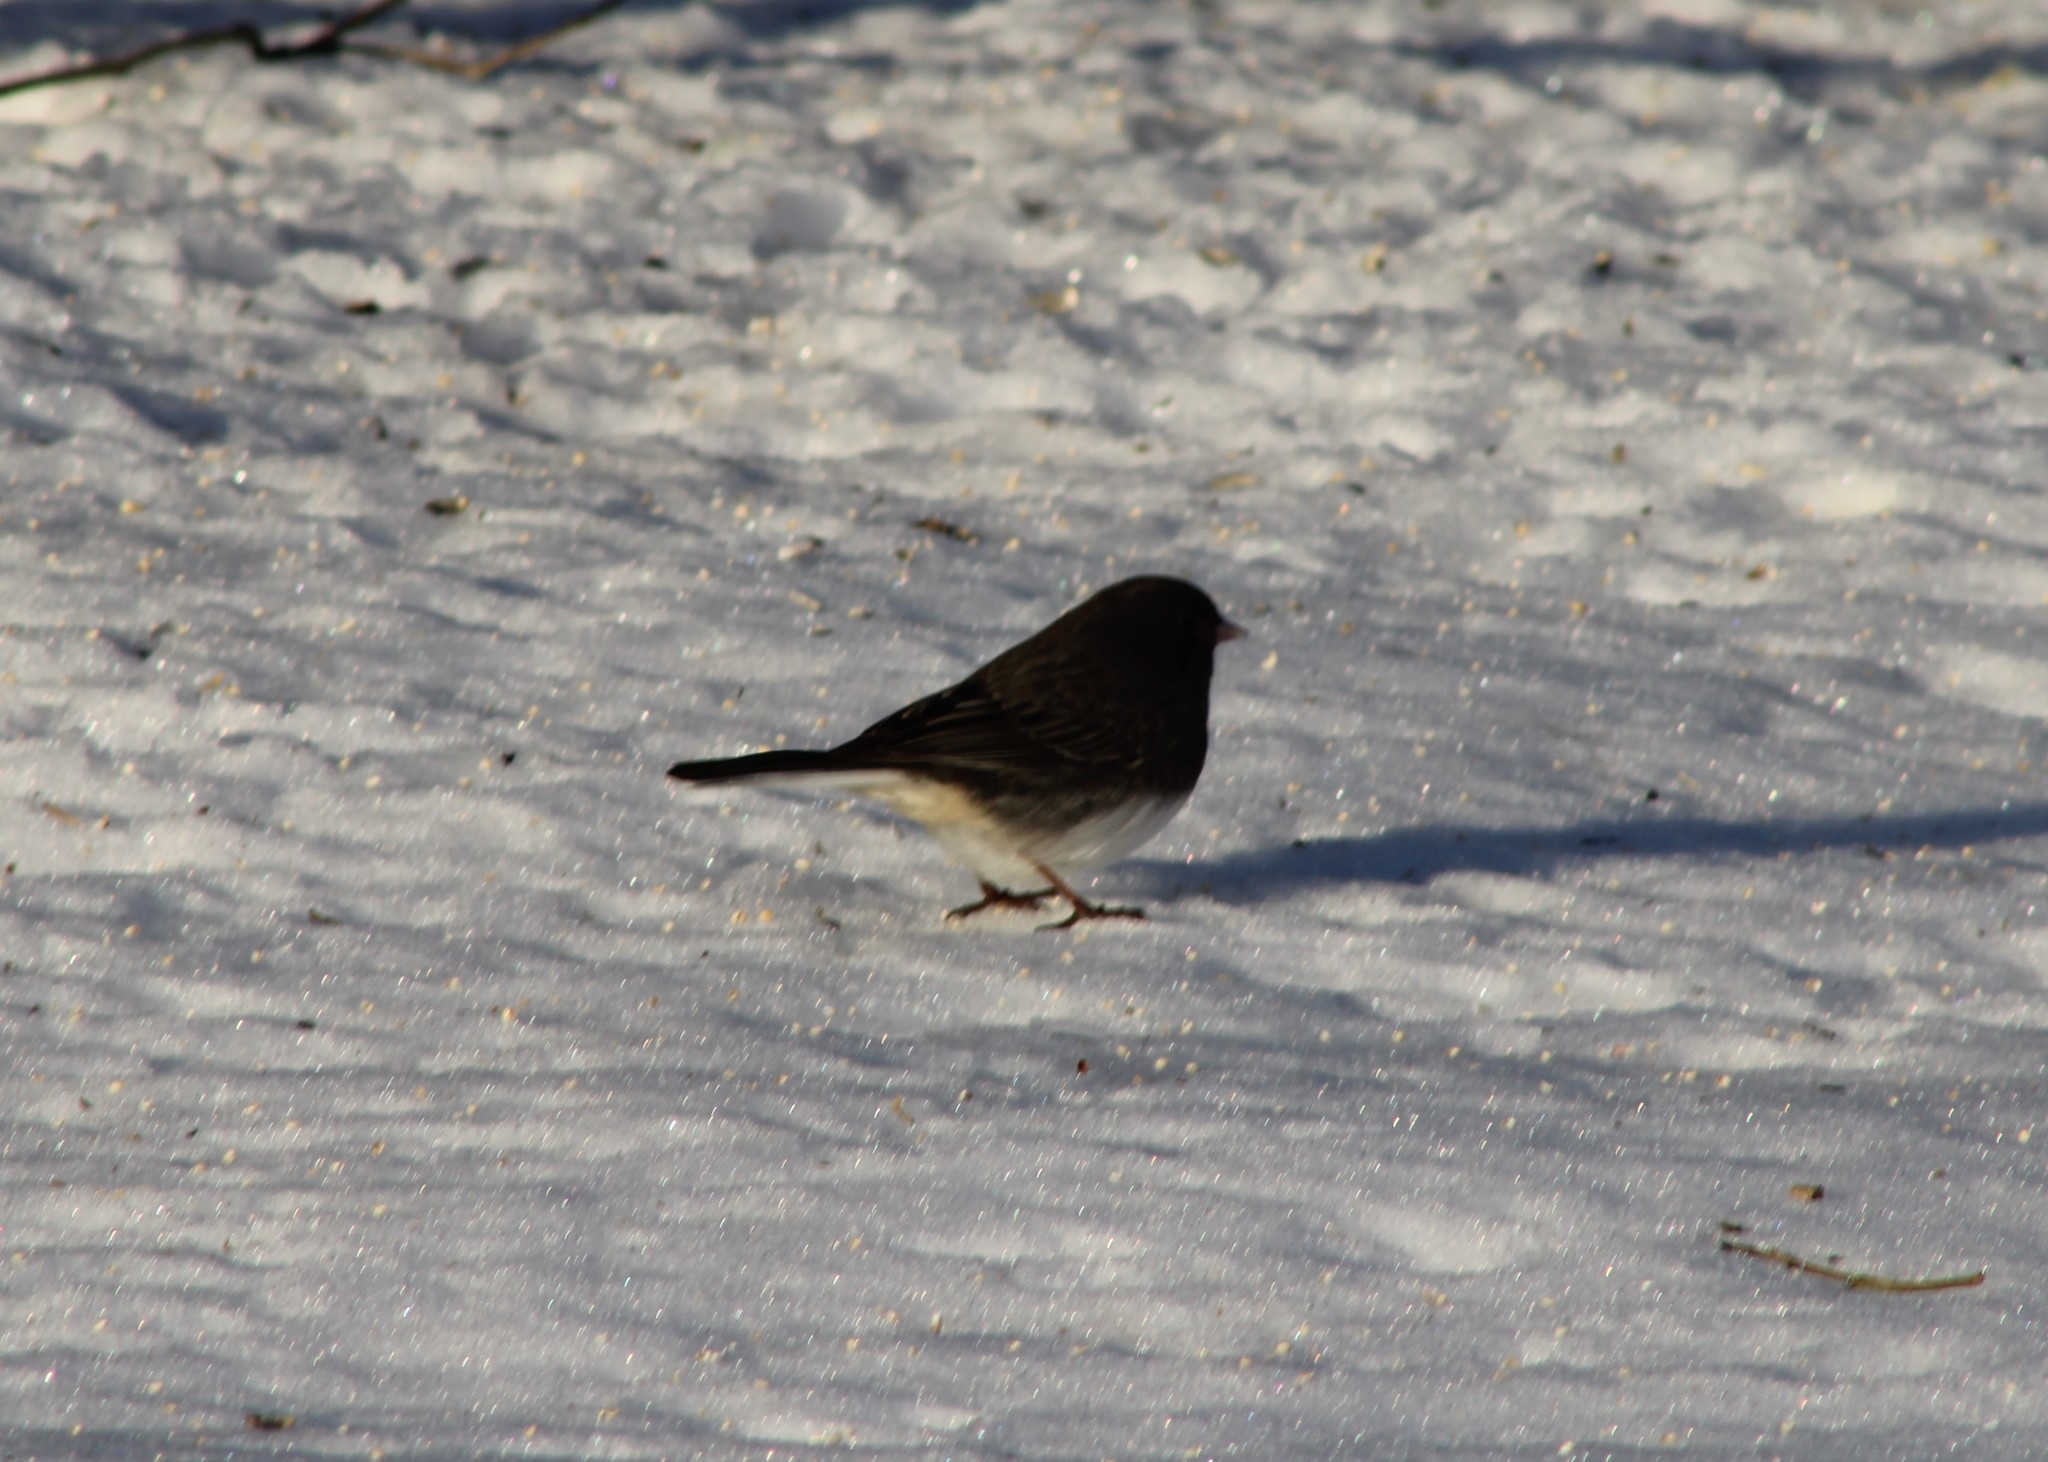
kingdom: Animalia
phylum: Chordata
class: Aves
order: Passeriformes
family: Passerellidae
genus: Junco
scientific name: Junco hyemalis
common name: Dark-eyed junco
